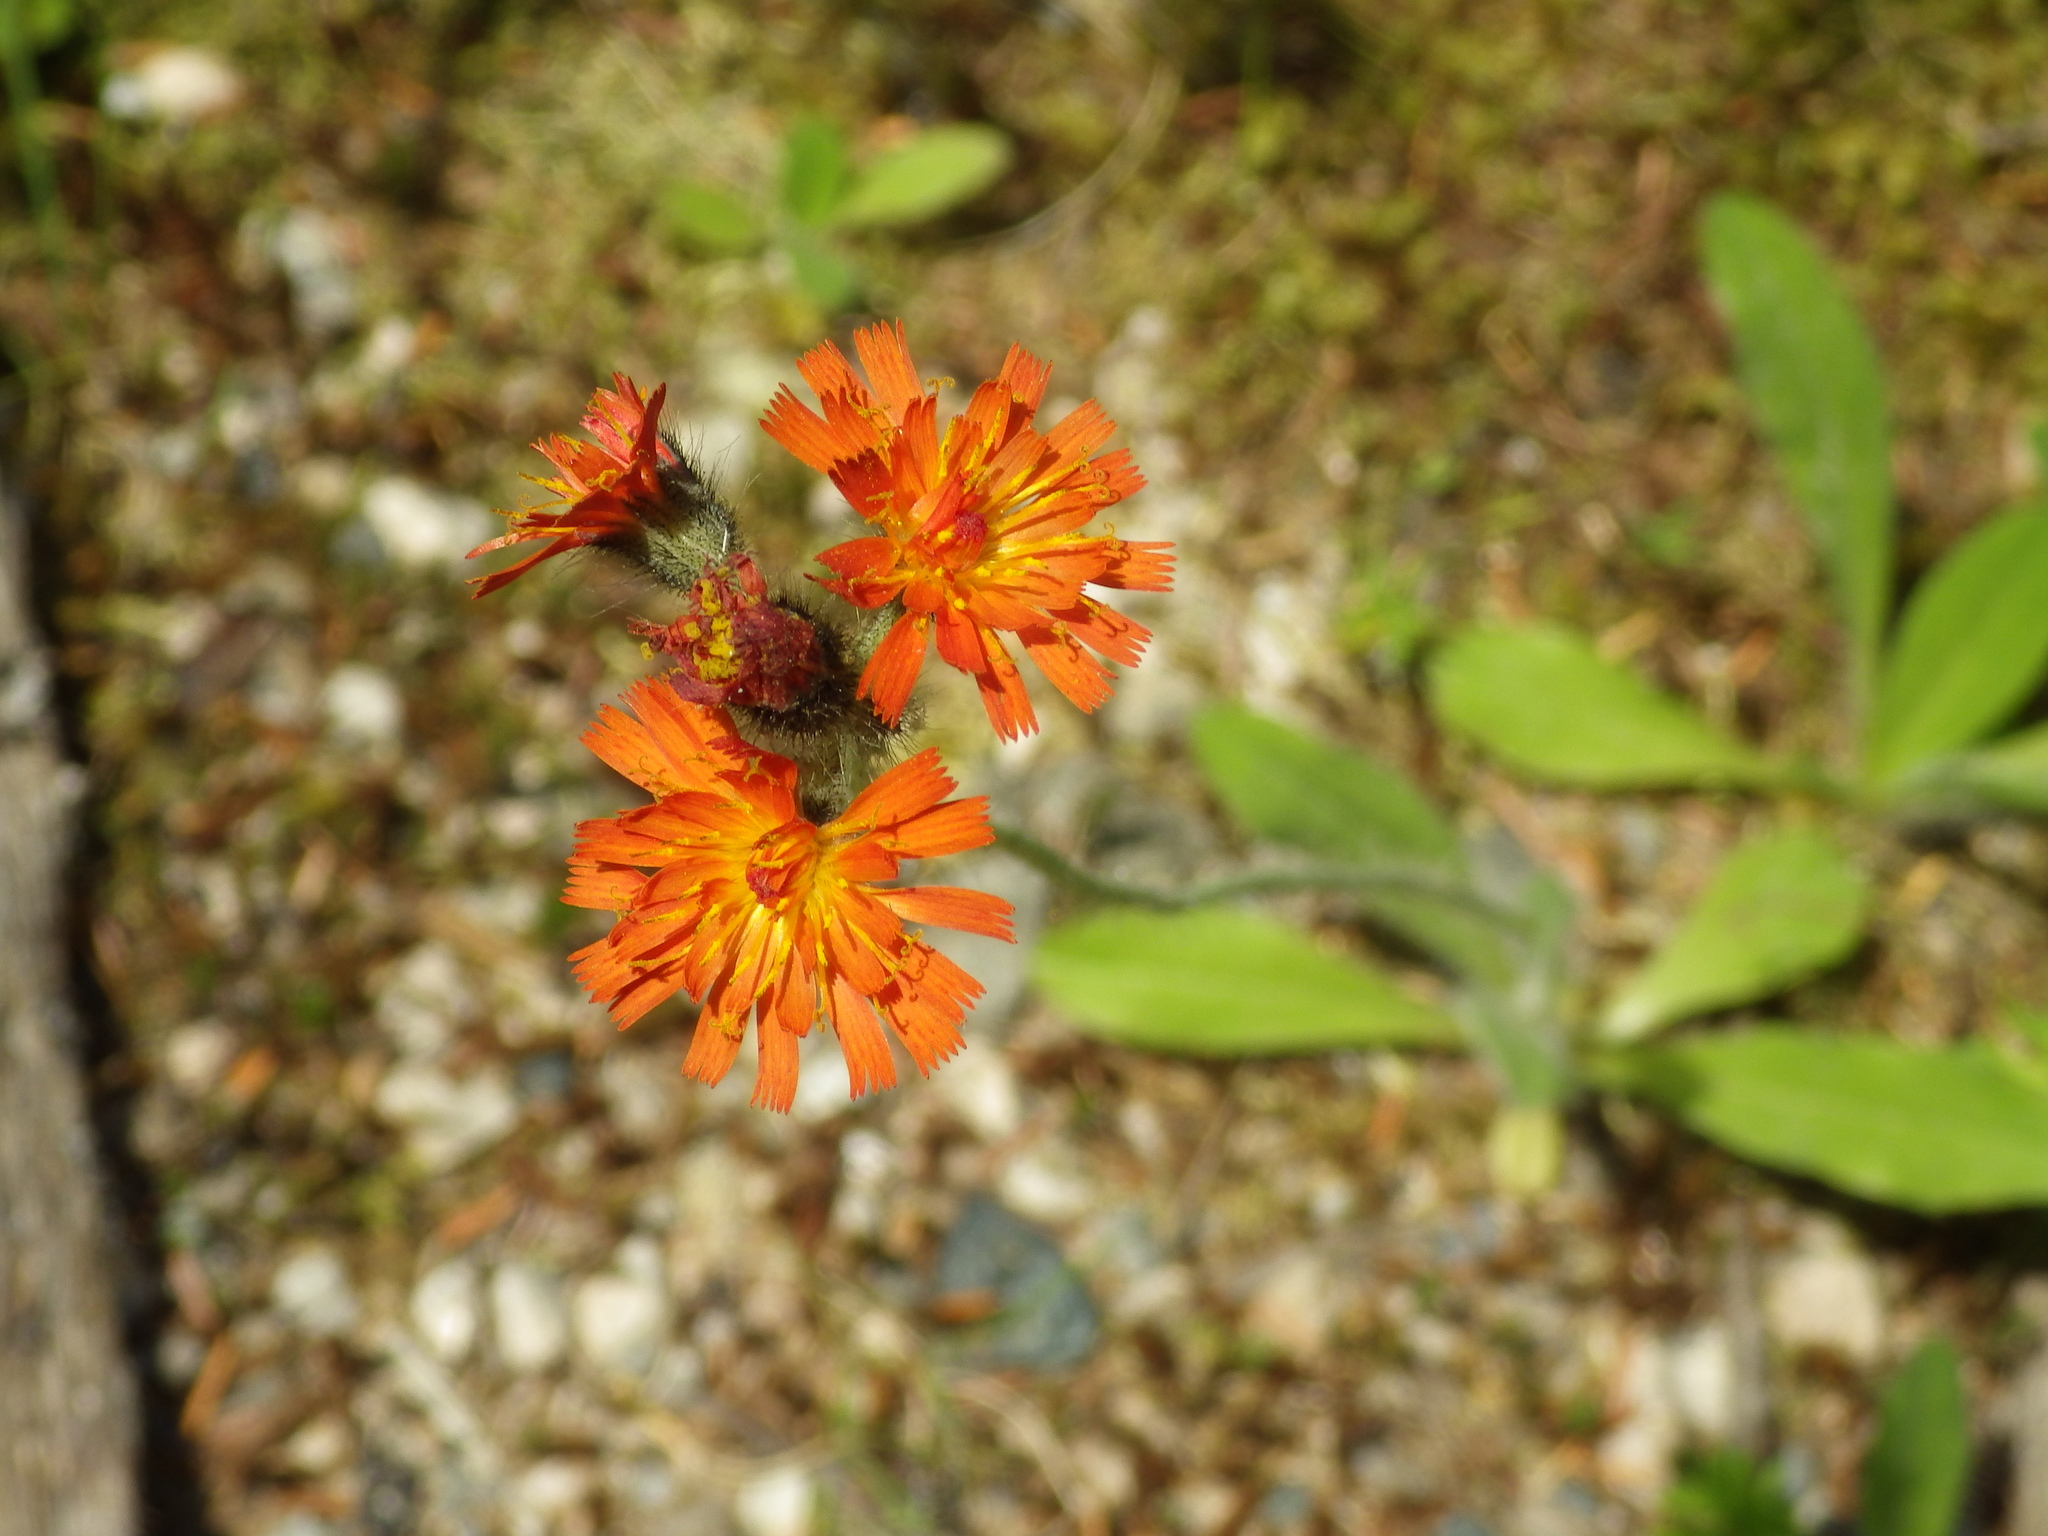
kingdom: Plantae
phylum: Tracheophyta
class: Magnoliopsida
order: Asterales
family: Asteraceae
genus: Pilosella
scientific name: Pilosella aurantiaca
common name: Fox-and-cubs
